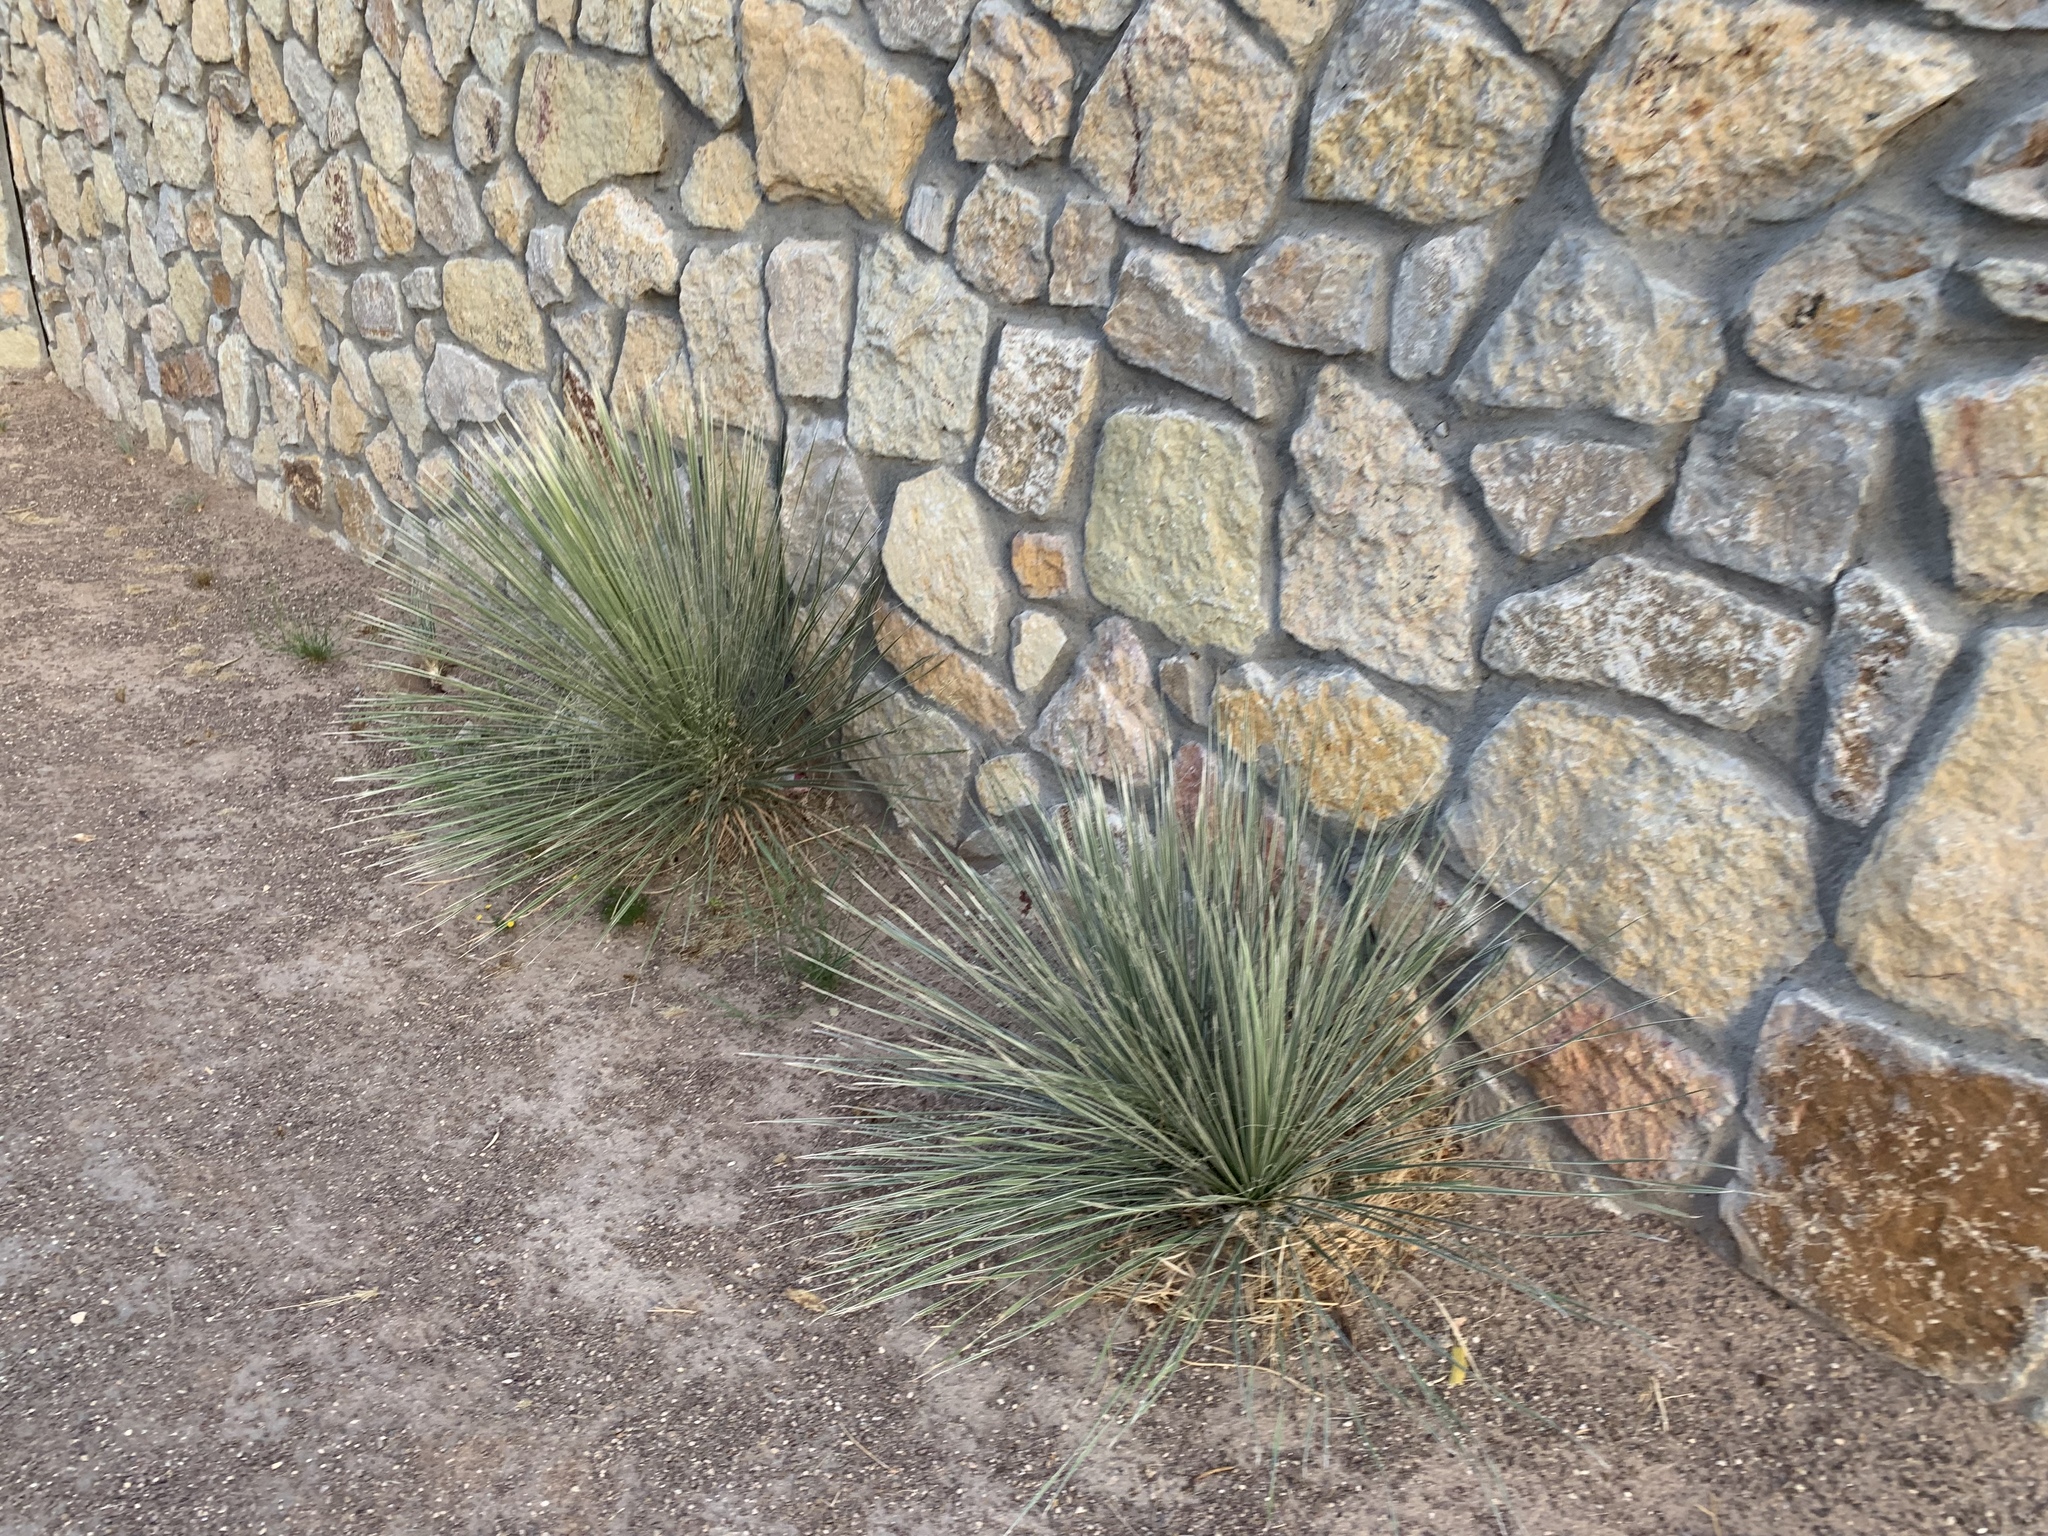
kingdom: Plantae
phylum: Tracheophyta
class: Liliopsida
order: Asparagales
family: Asparagaceae
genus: Yucca
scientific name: Yucca elata
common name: Palmella
